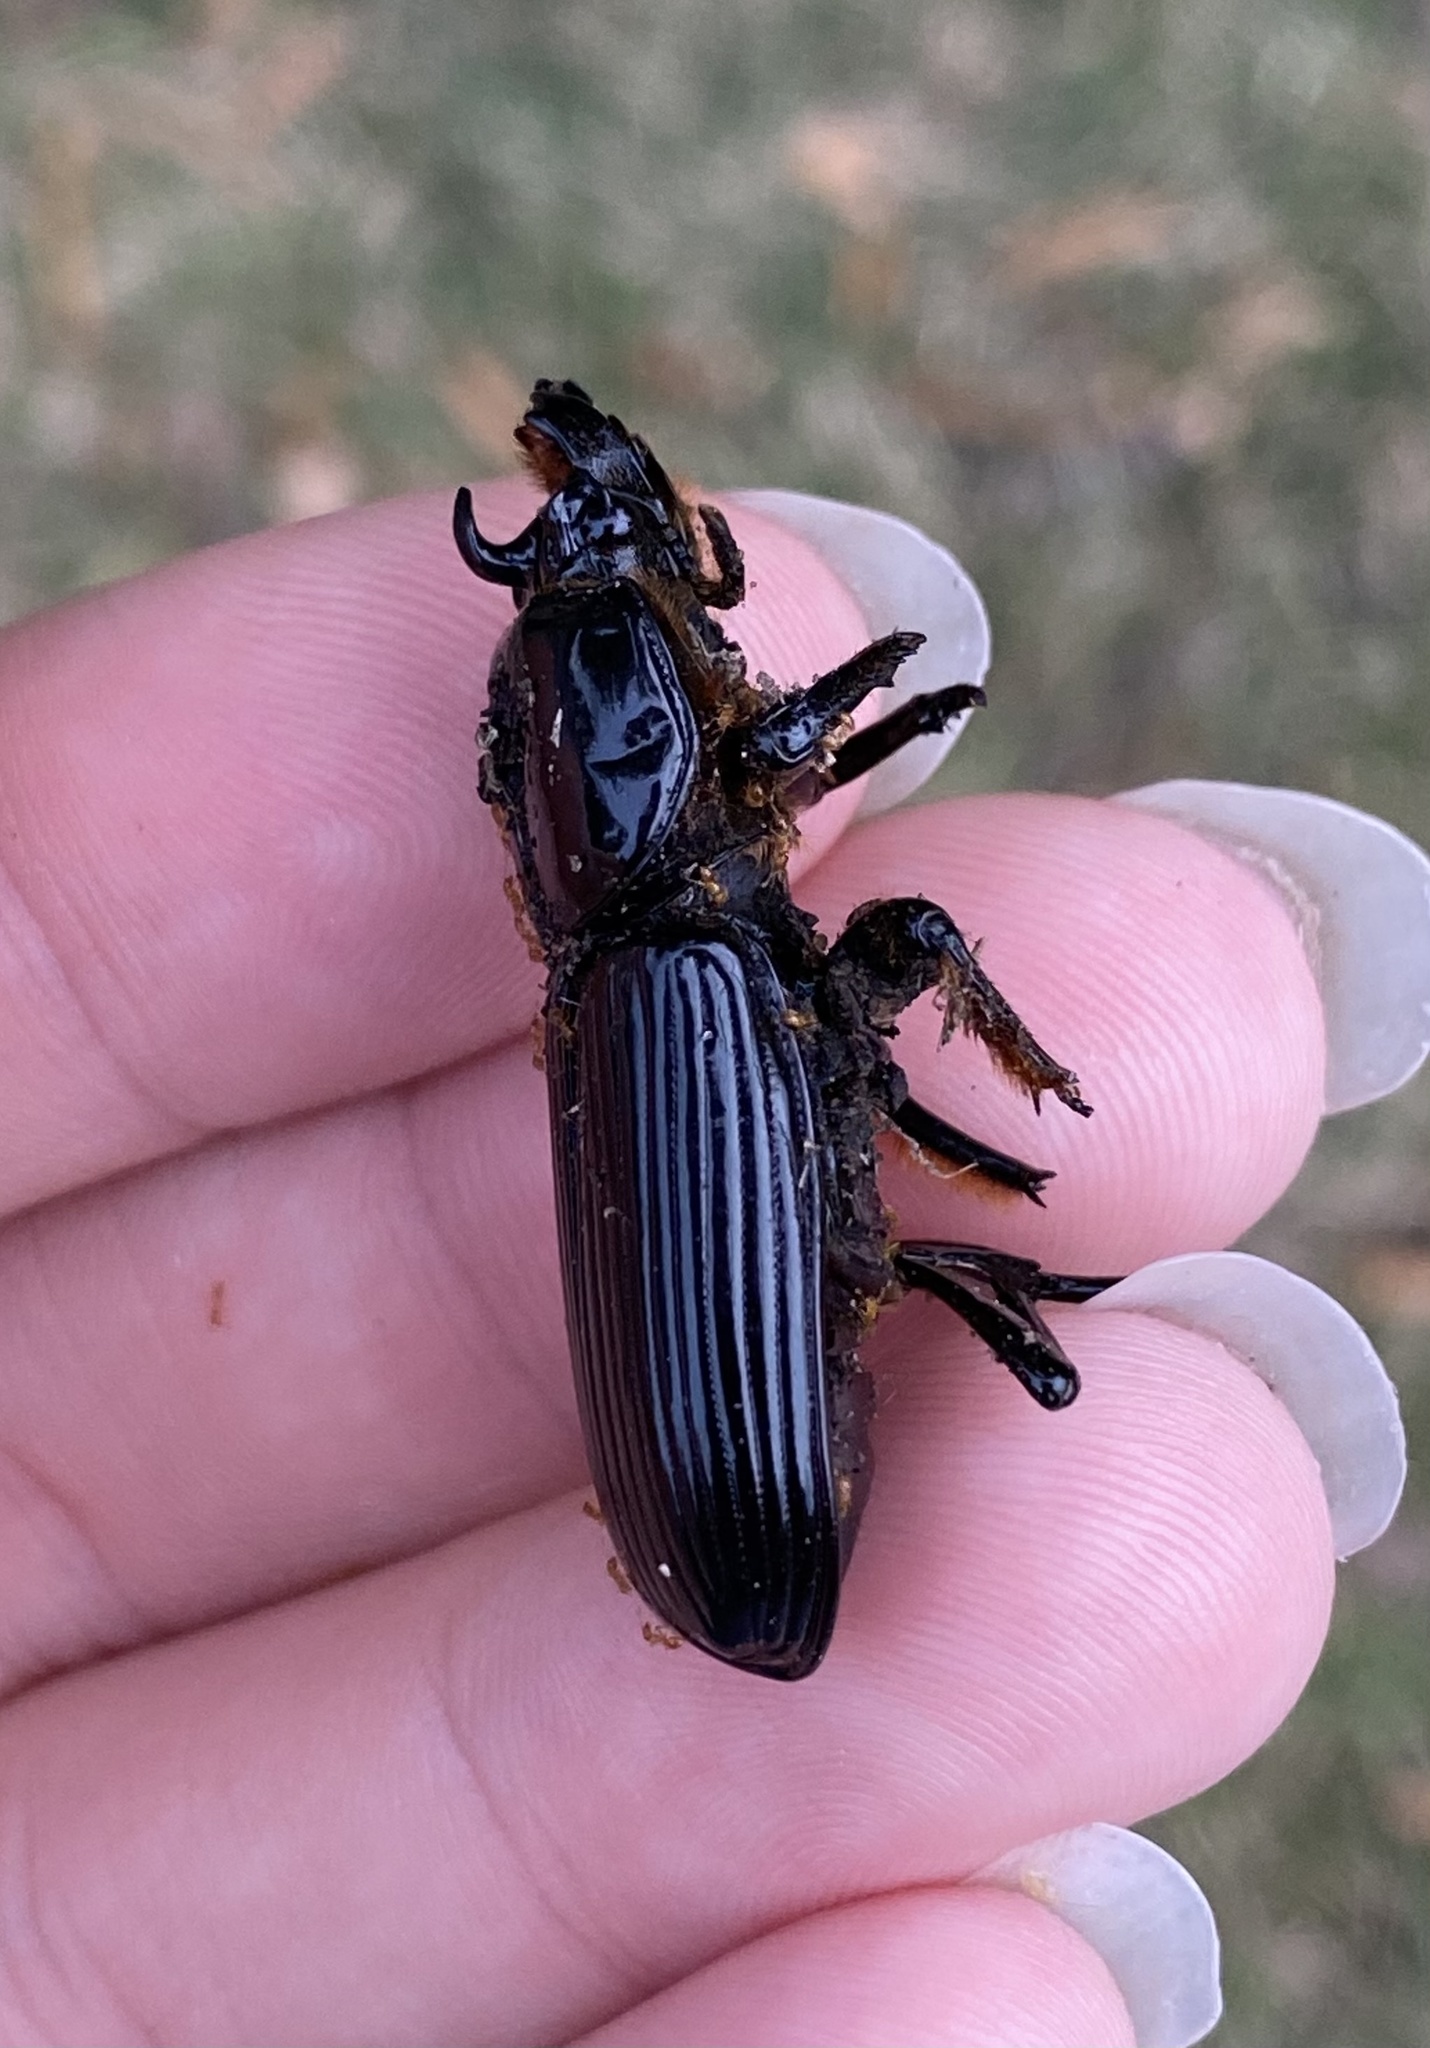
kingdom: Animalia
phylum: Arthropoda
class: Insecta
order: Coleoptera
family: Passalidae
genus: Odontotaenius
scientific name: Odontotaenius disjunctus
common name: Patent leather beetle
